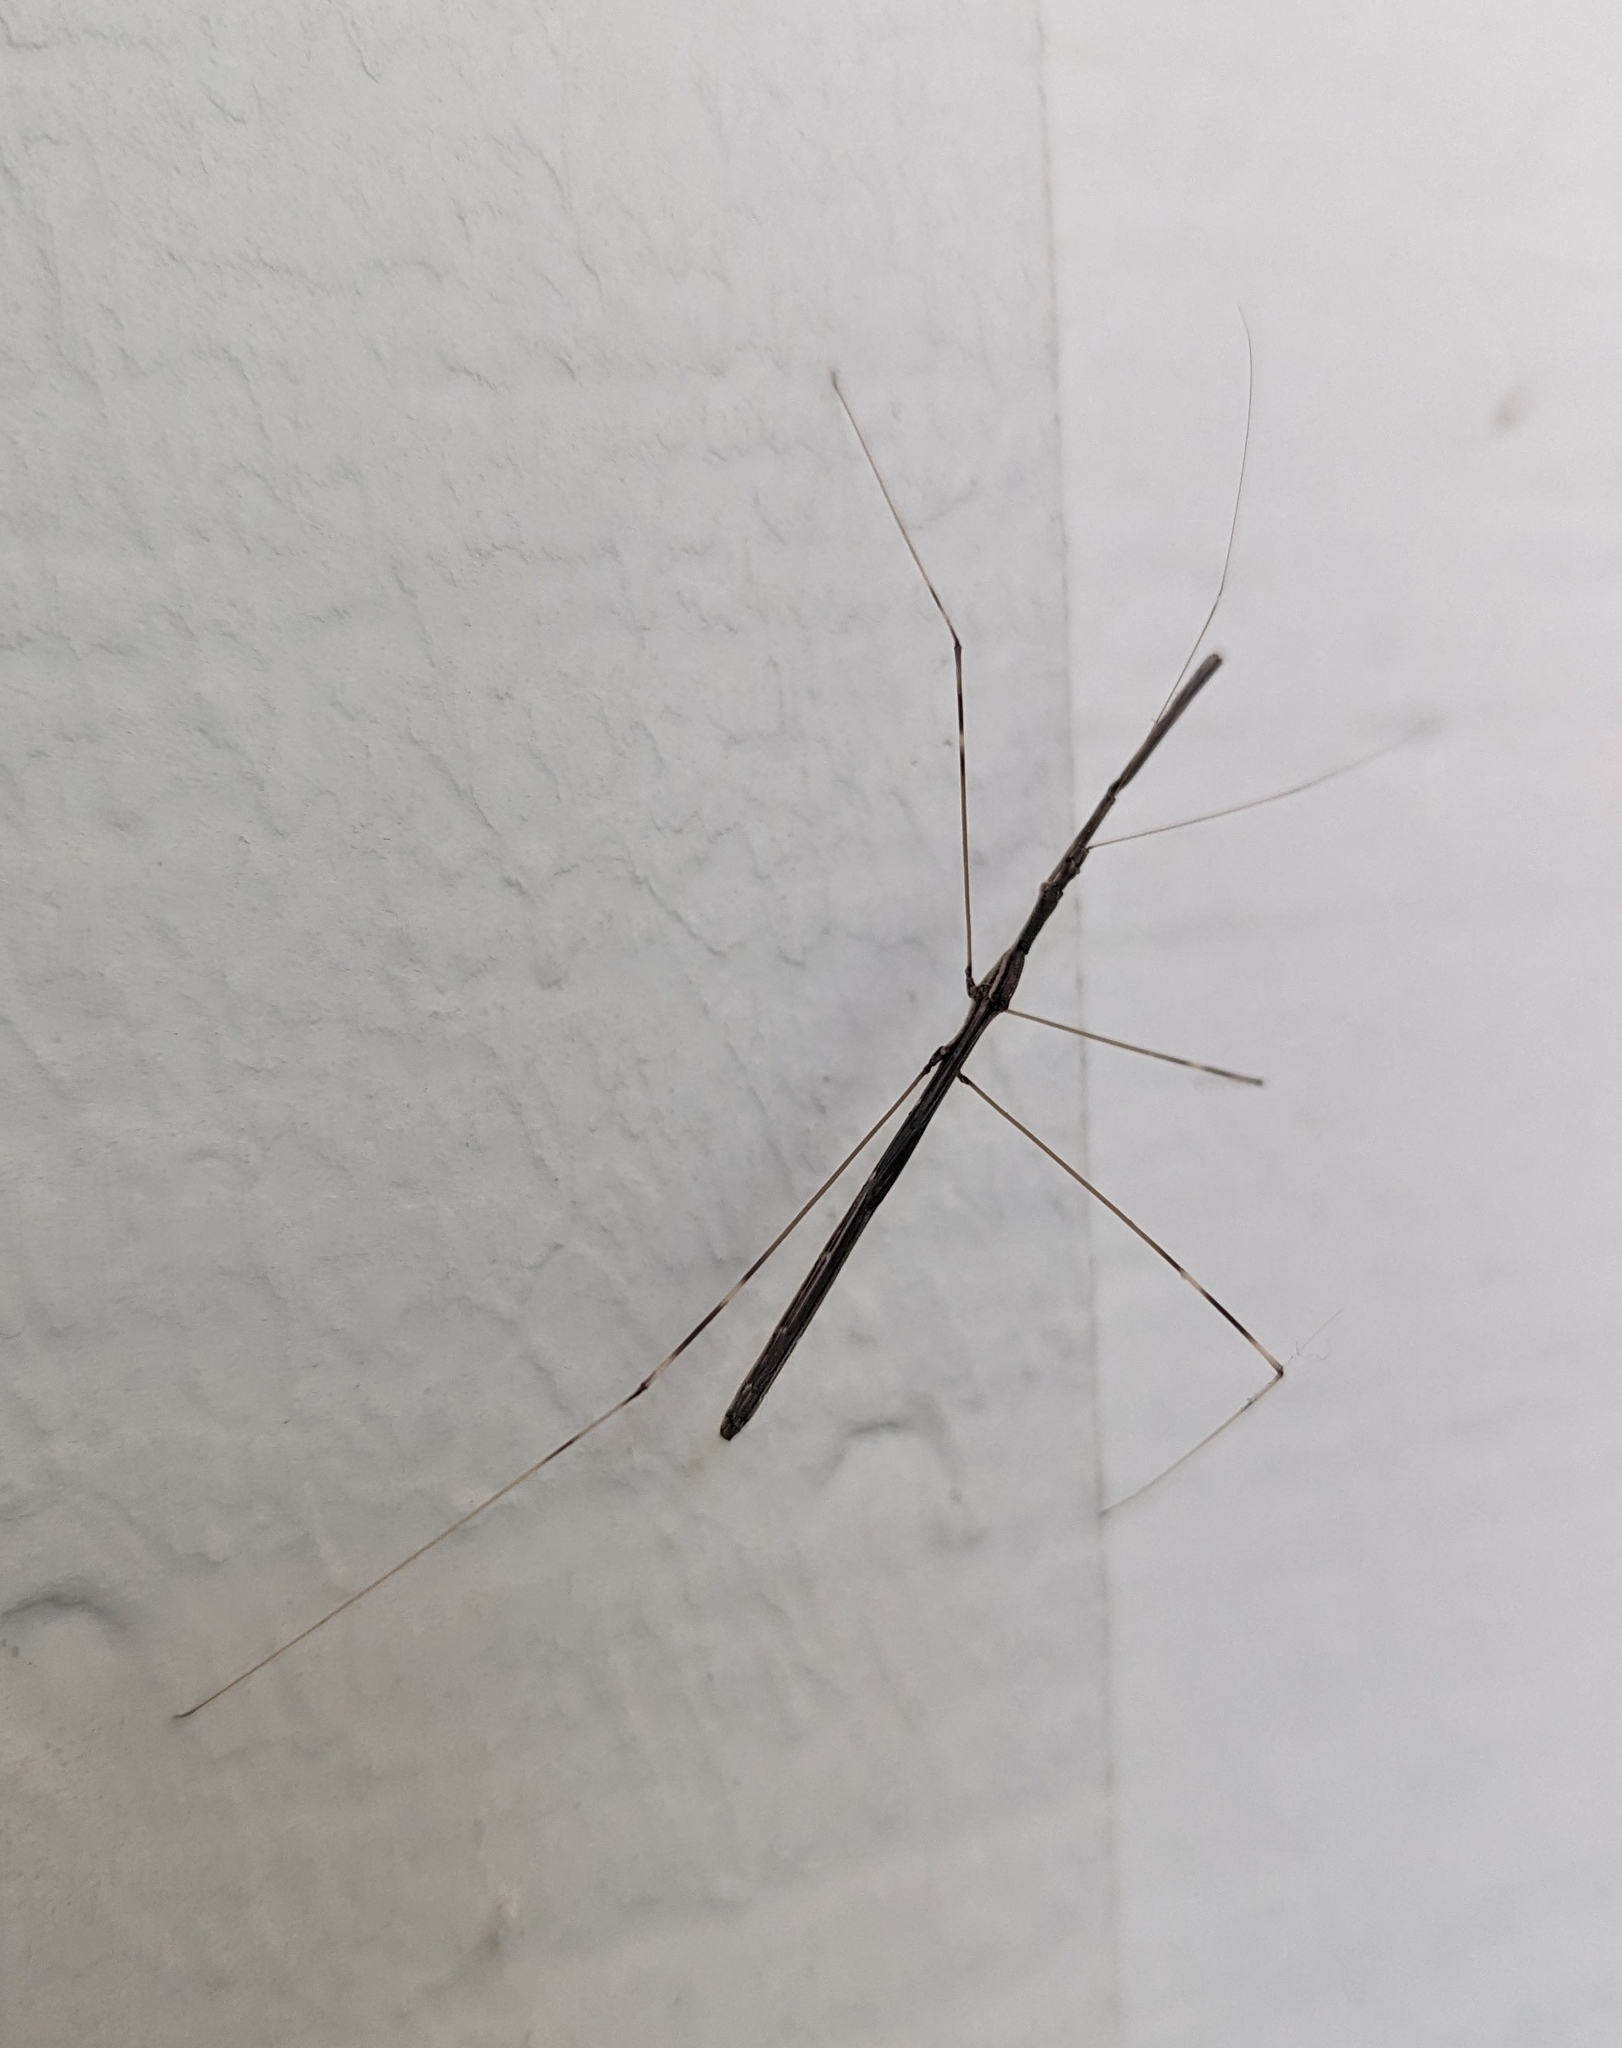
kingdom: Animalia
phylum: Arthropoda
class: Insecta
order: Hemiptera
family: Reduviidae
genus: Emesaya
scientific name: Emesaya brevipennis
